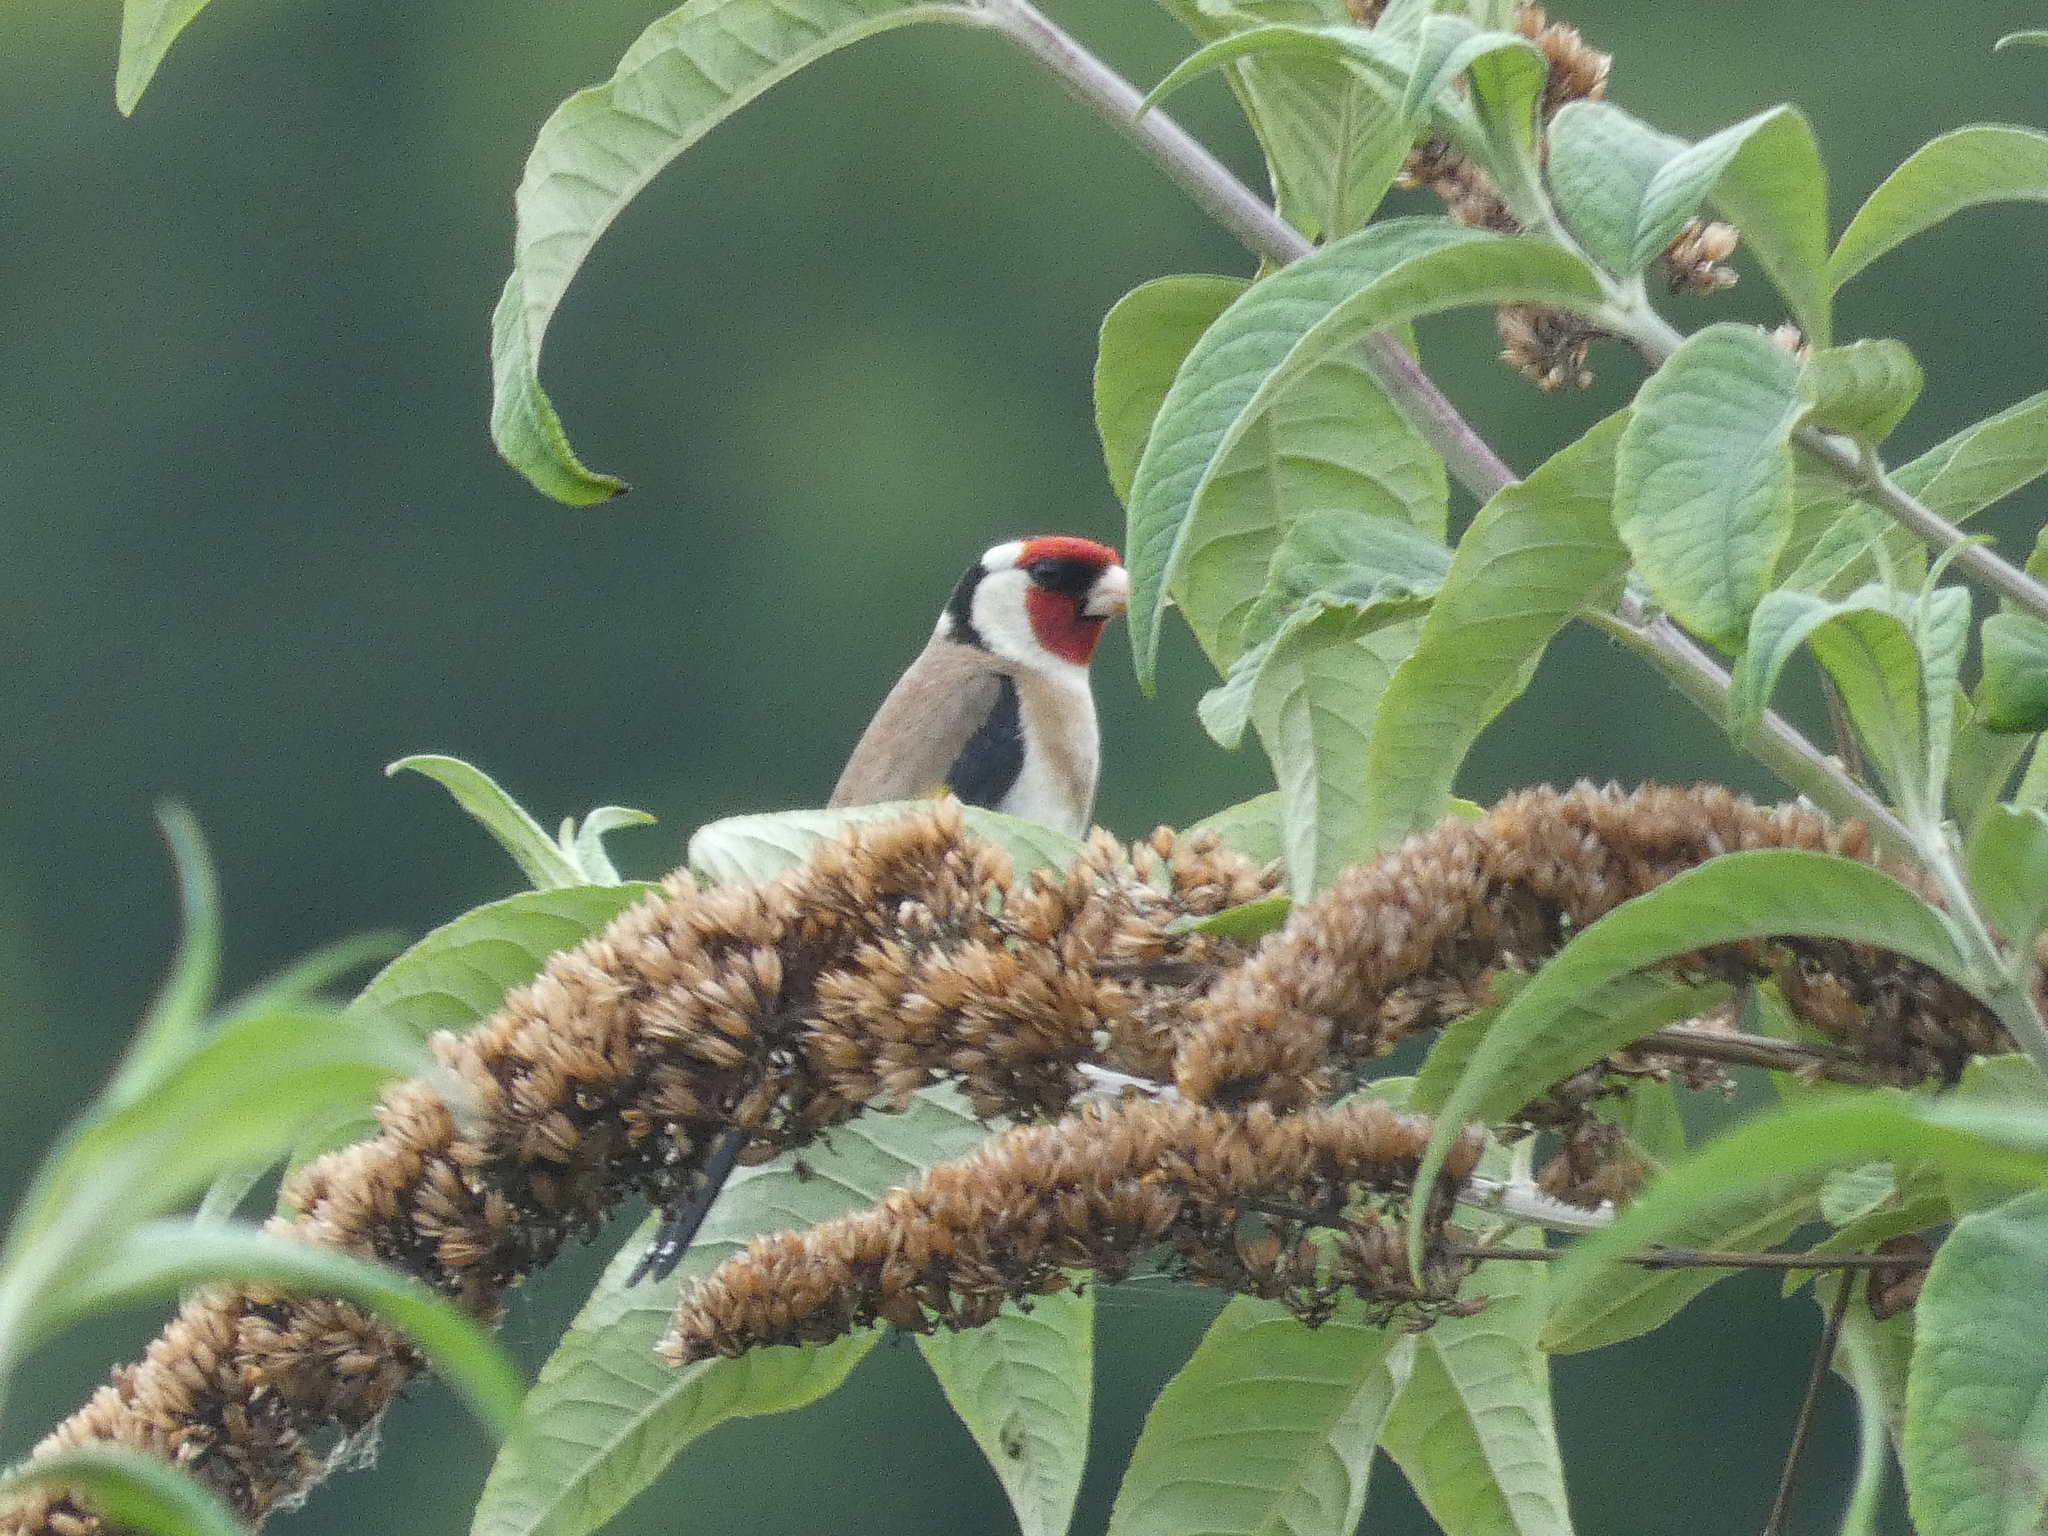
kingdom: Animalia
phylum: Chordata
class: Aves
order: Passeriformes
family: Fringillidae
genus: Carduelis
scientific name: Carduelis carduelis
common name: European goldfinch
